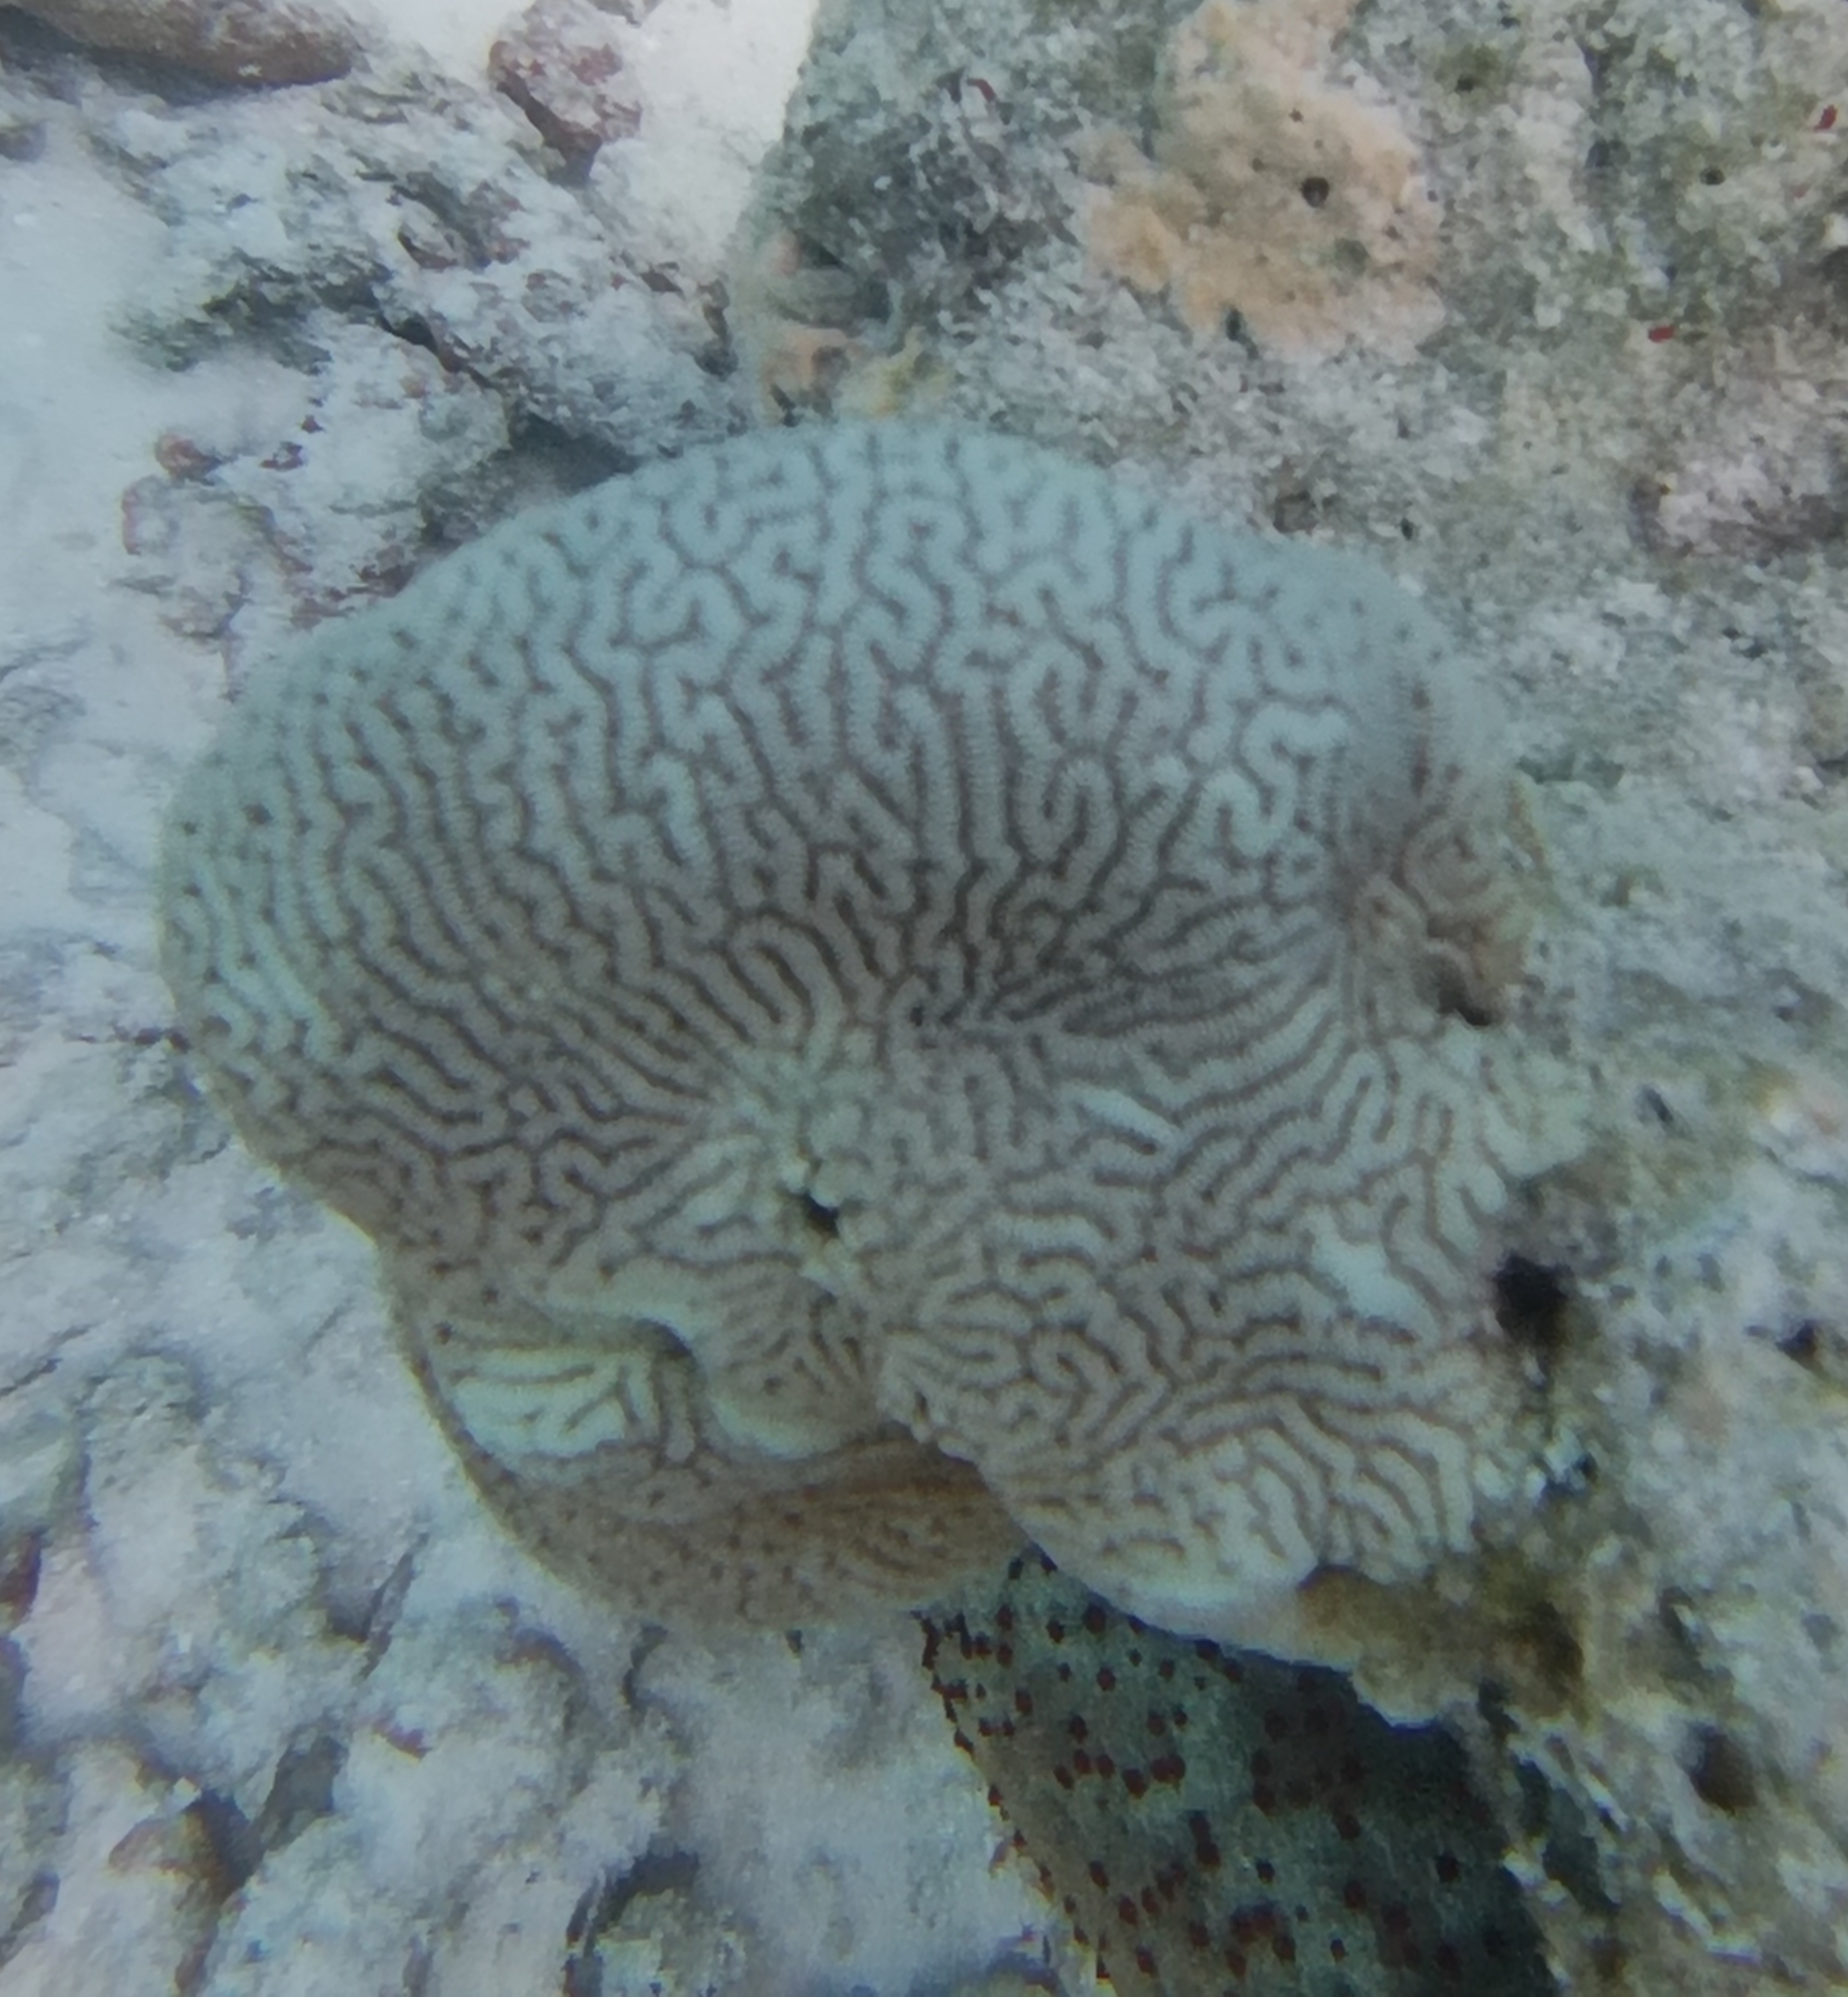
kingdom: Animalia
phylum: Cnidaria
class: Anthozoa
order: Scleractinia
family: Merulinidae
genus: Leptoria
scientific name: Leptoria phrygia
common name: Least valley coral
